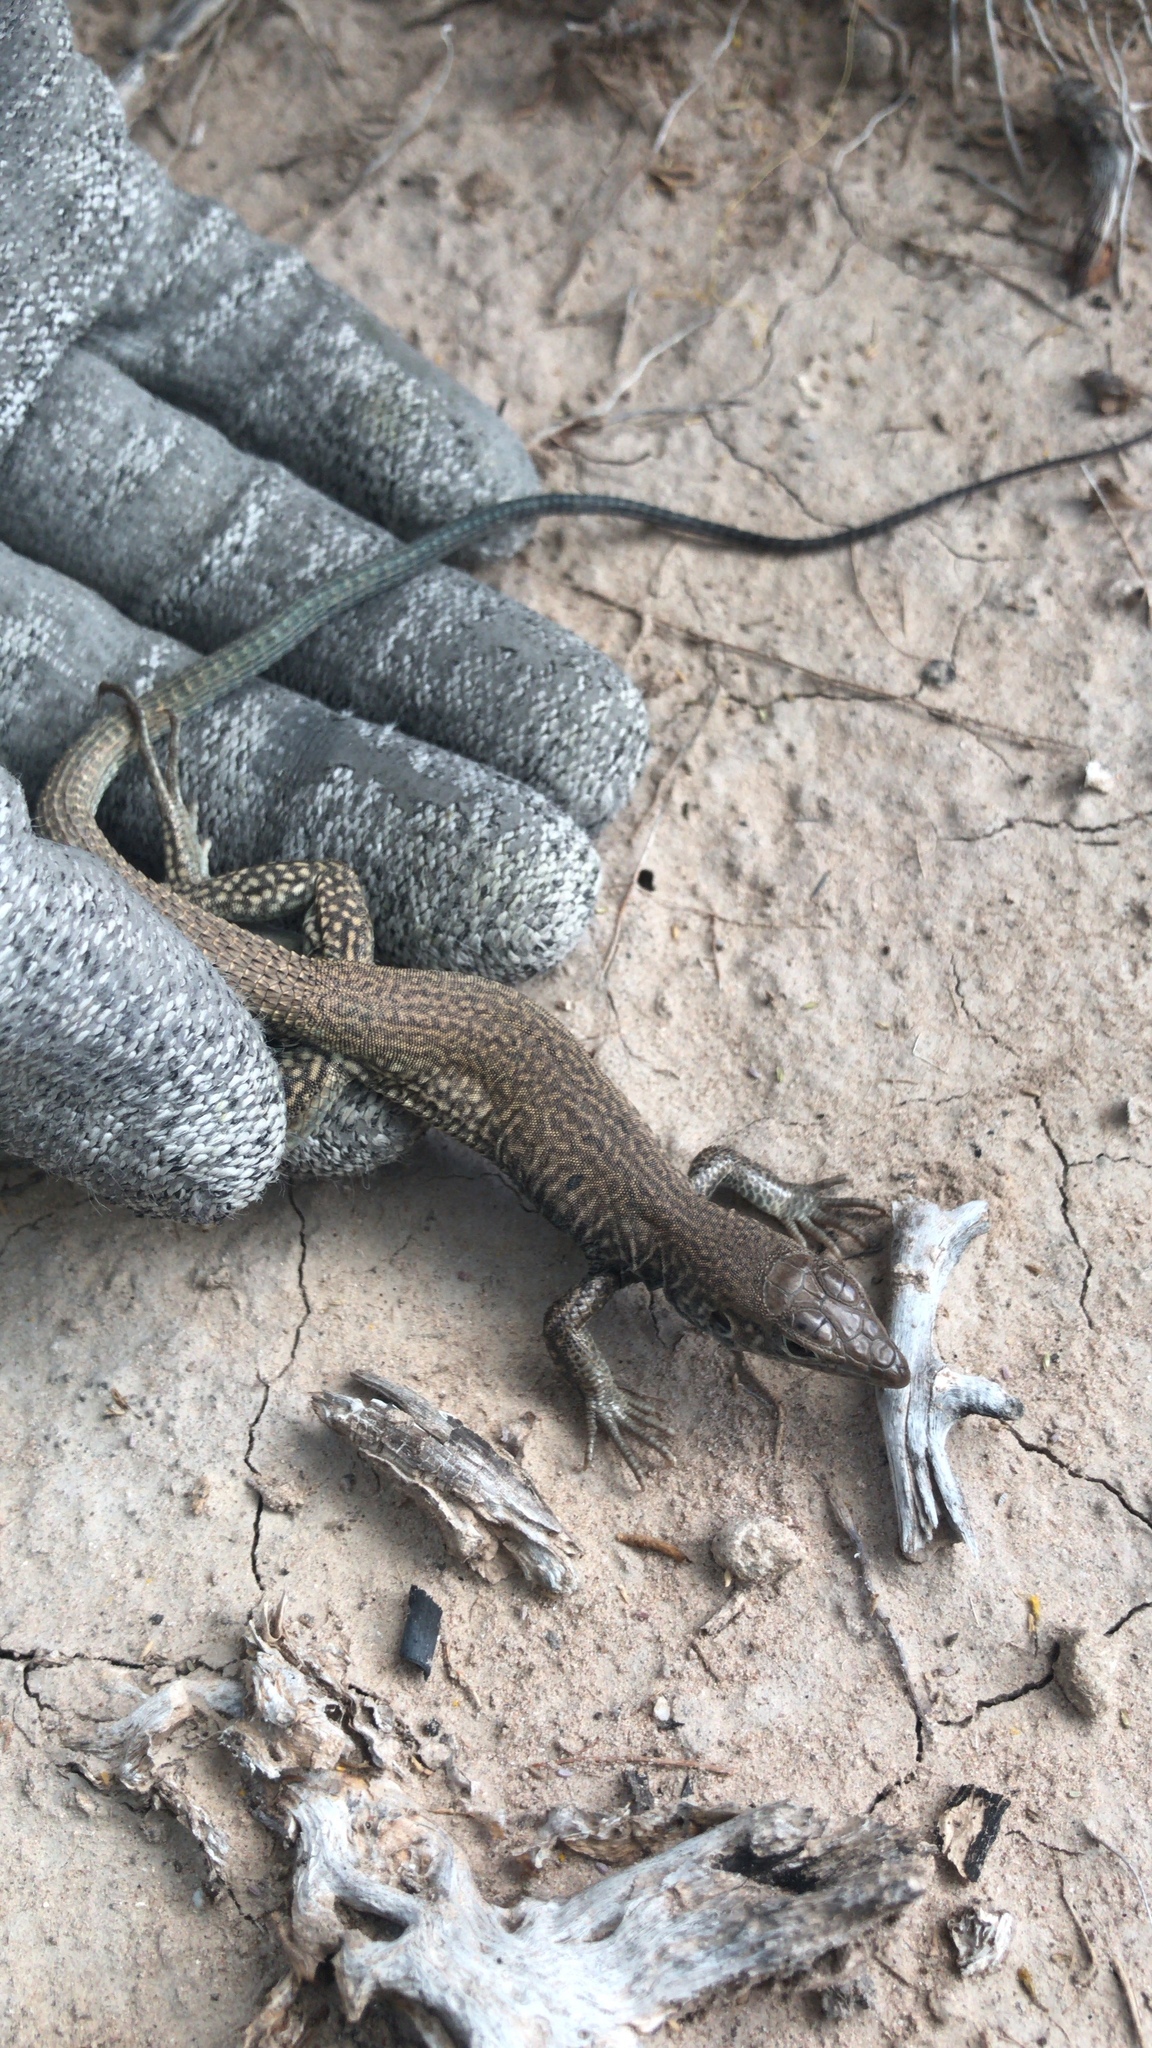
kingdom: Animalia
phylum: Chordata
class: Squamata
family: Teiidae
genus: Aspidoscelis
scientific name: Aspidoscelis marmoratus
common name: Eastern marbled whiptail [reticuloriens]
